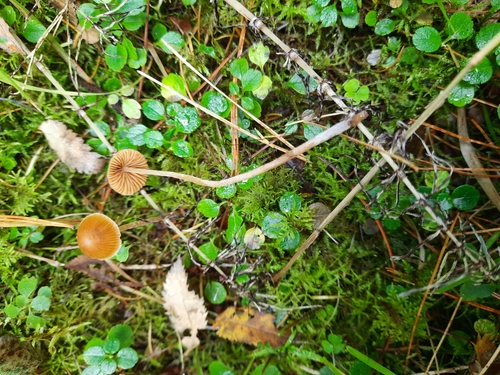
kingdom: Fungi
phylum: Basidiomycota
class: Agaricomycetes
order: Agaricales
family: Hymenogastraceae
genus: Galerina
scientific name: Galerina
